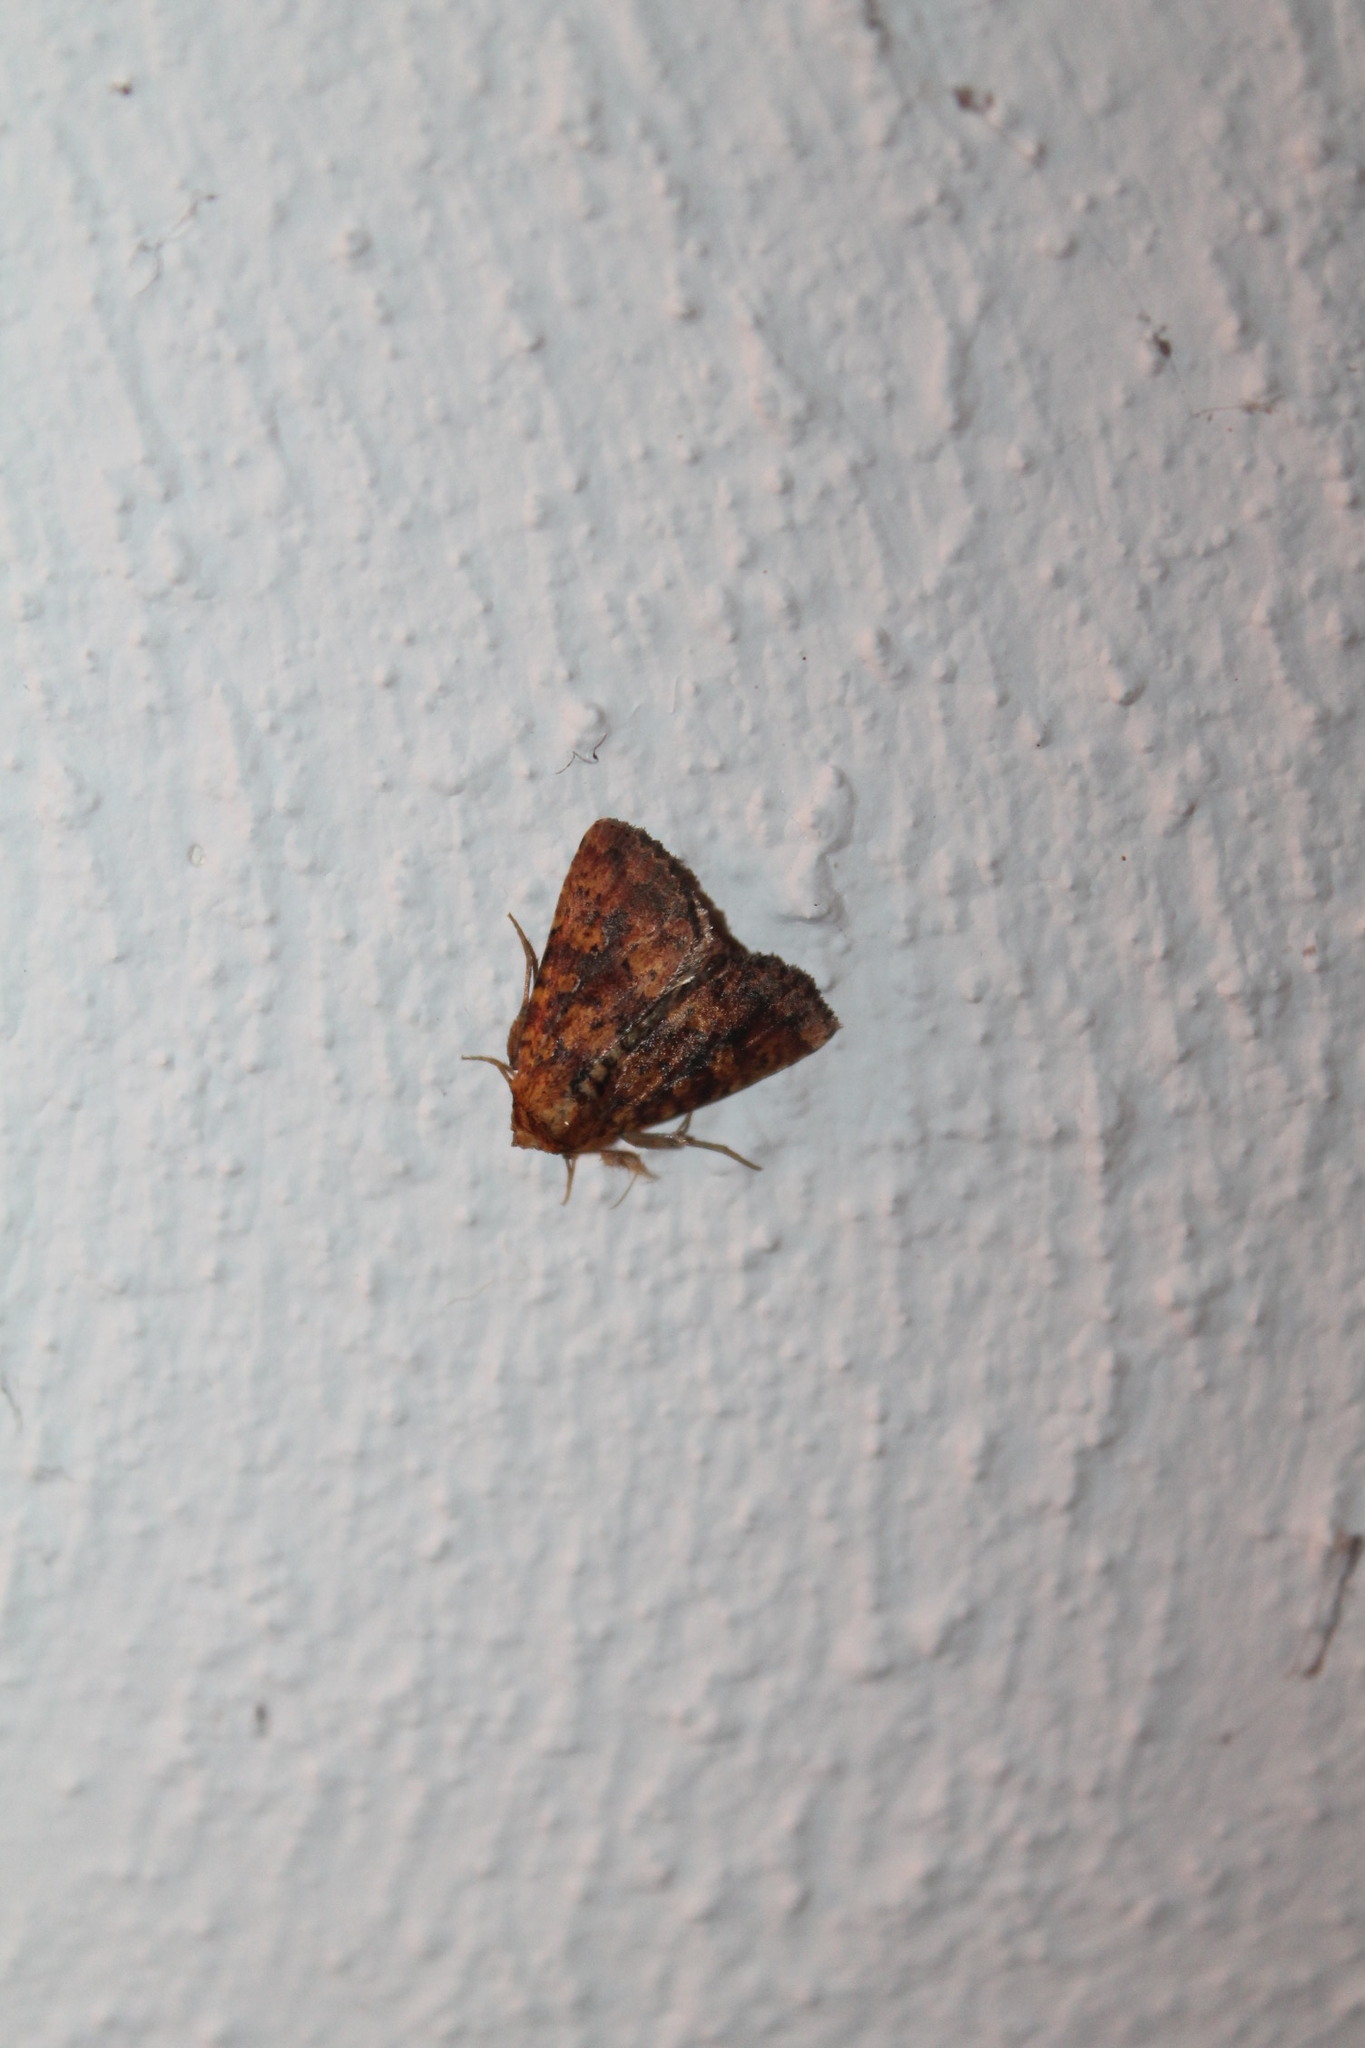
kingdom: Animalia
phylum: Arthropoda
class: Insecta
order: Lepidoptera
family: Noctuidae
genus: Perigea
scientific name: Perigea xanthioides
